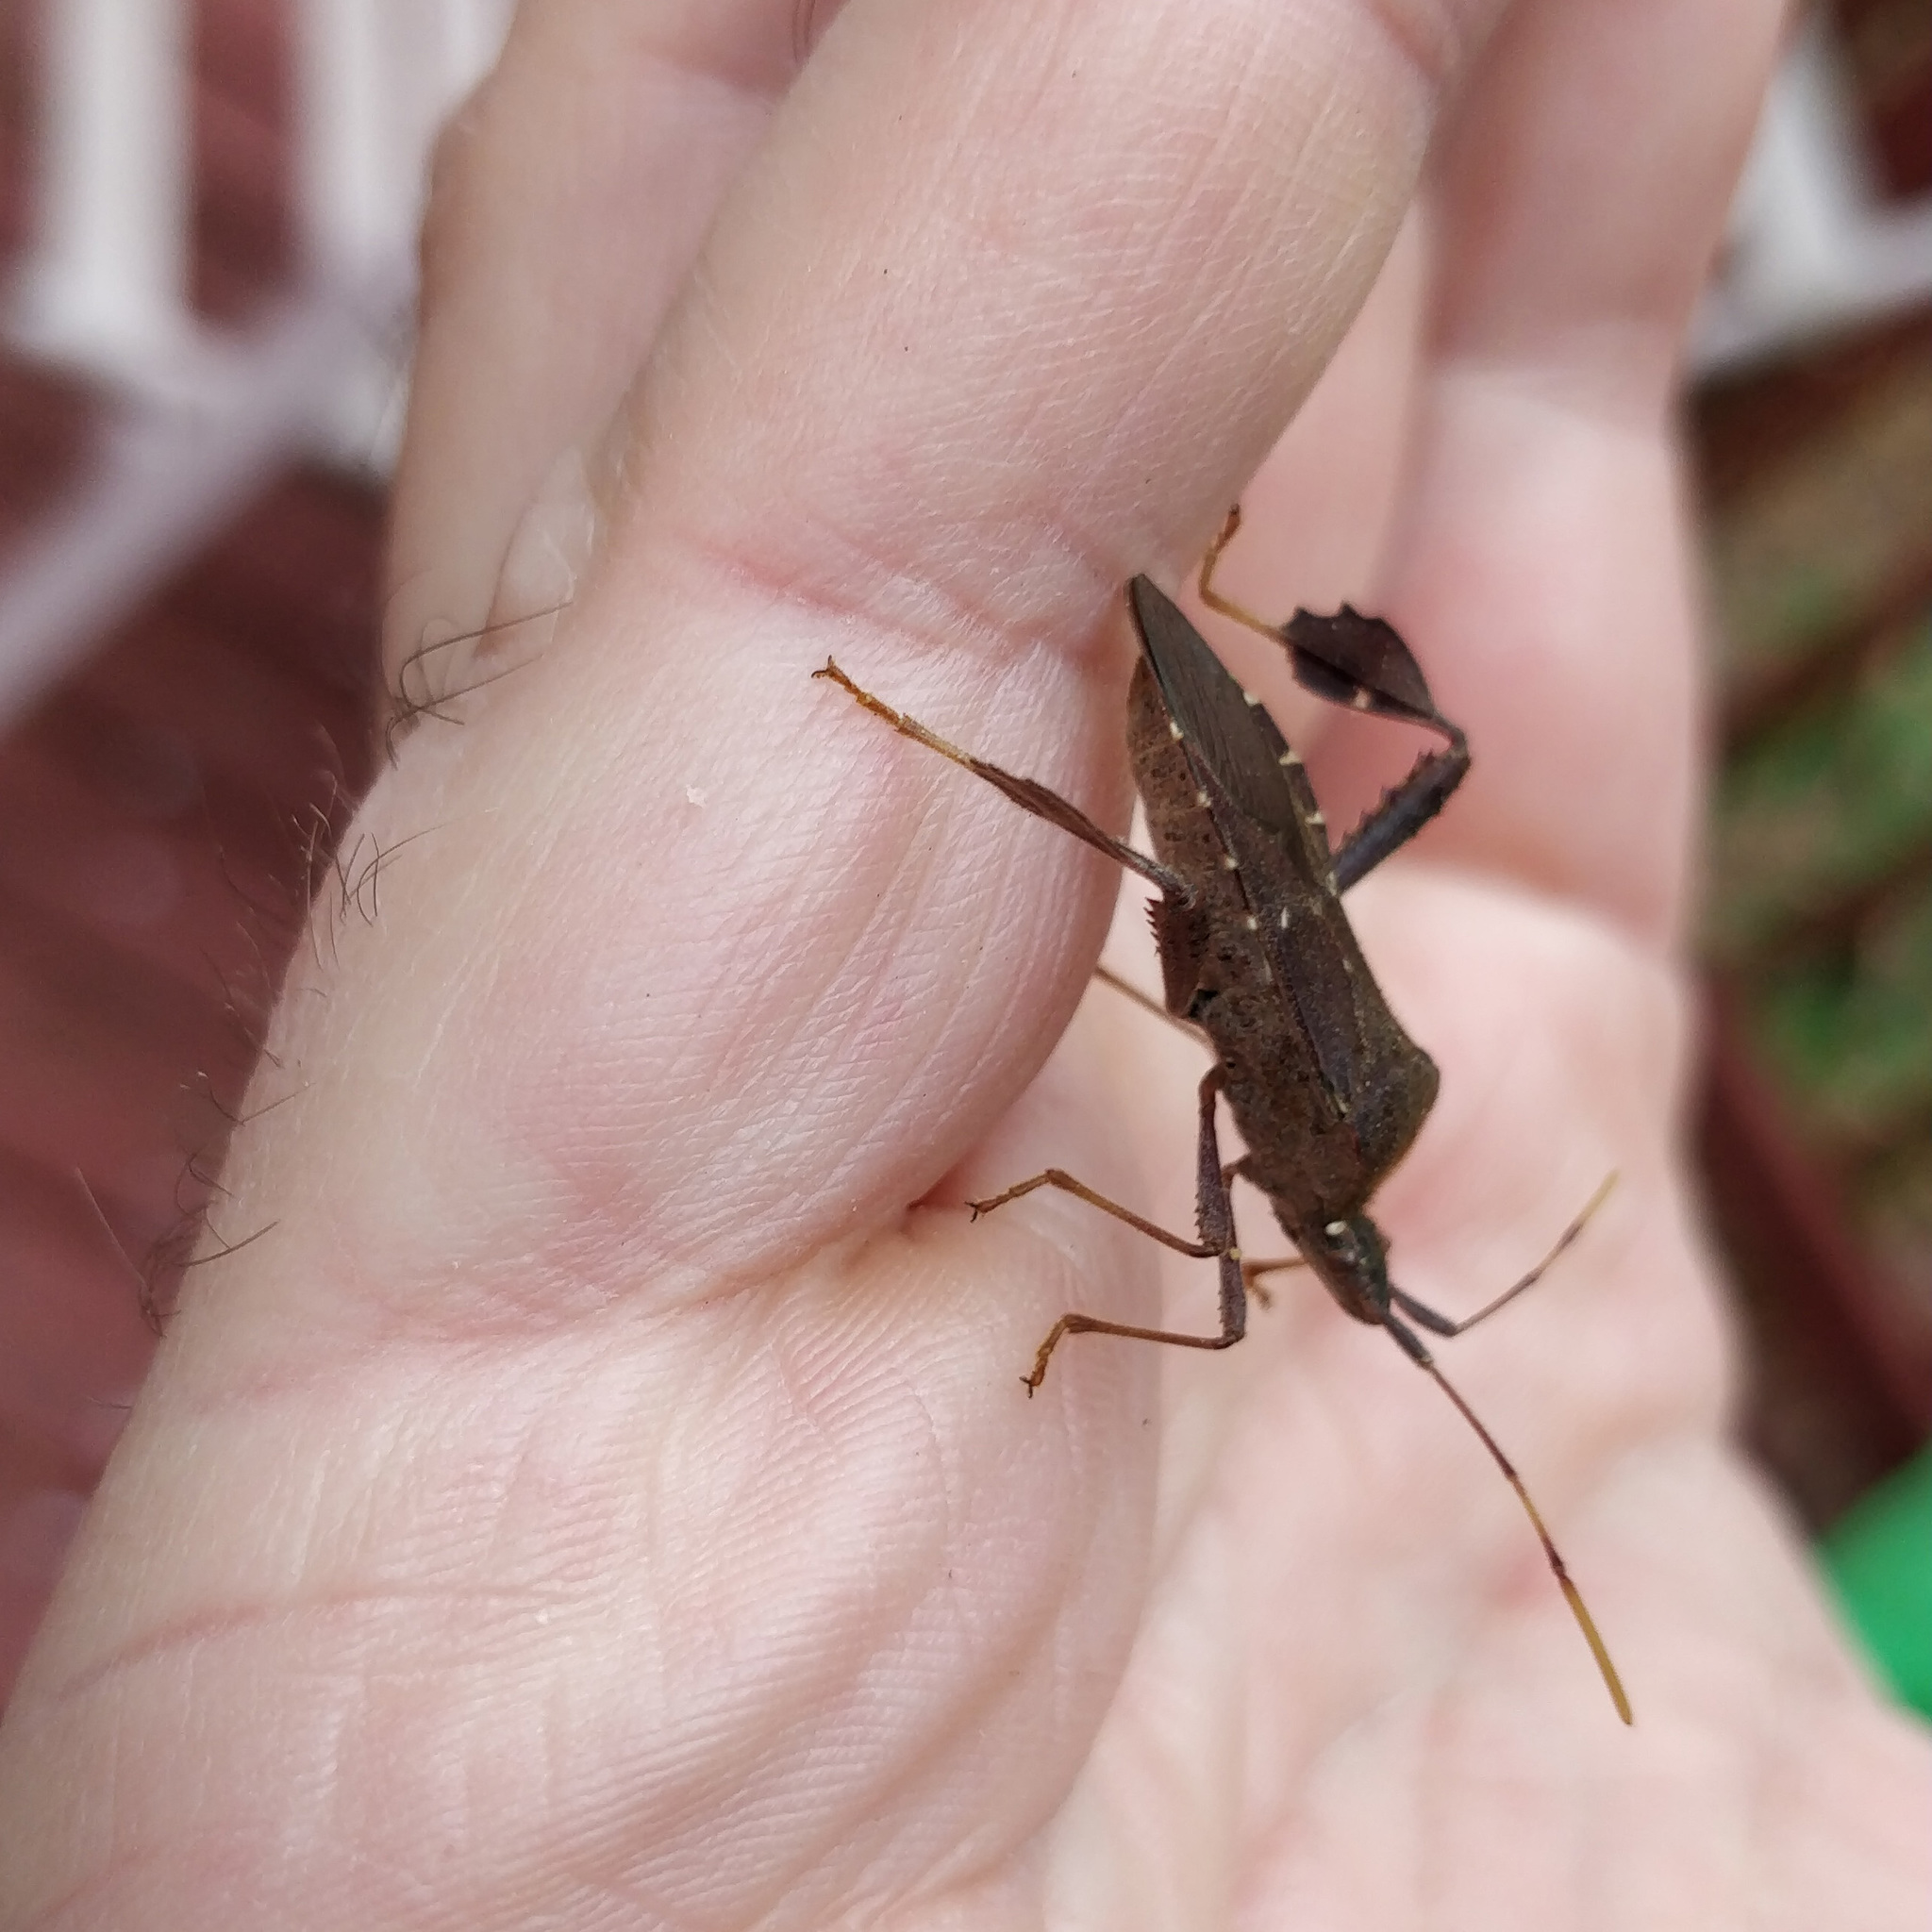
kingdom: Animalia
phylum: Arthropoda
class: Insecta
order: Hemiptera
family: Coreidae
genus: Leptoglossus
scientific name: Leptoglossus oppositus
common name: Northern leaf-footed bug
